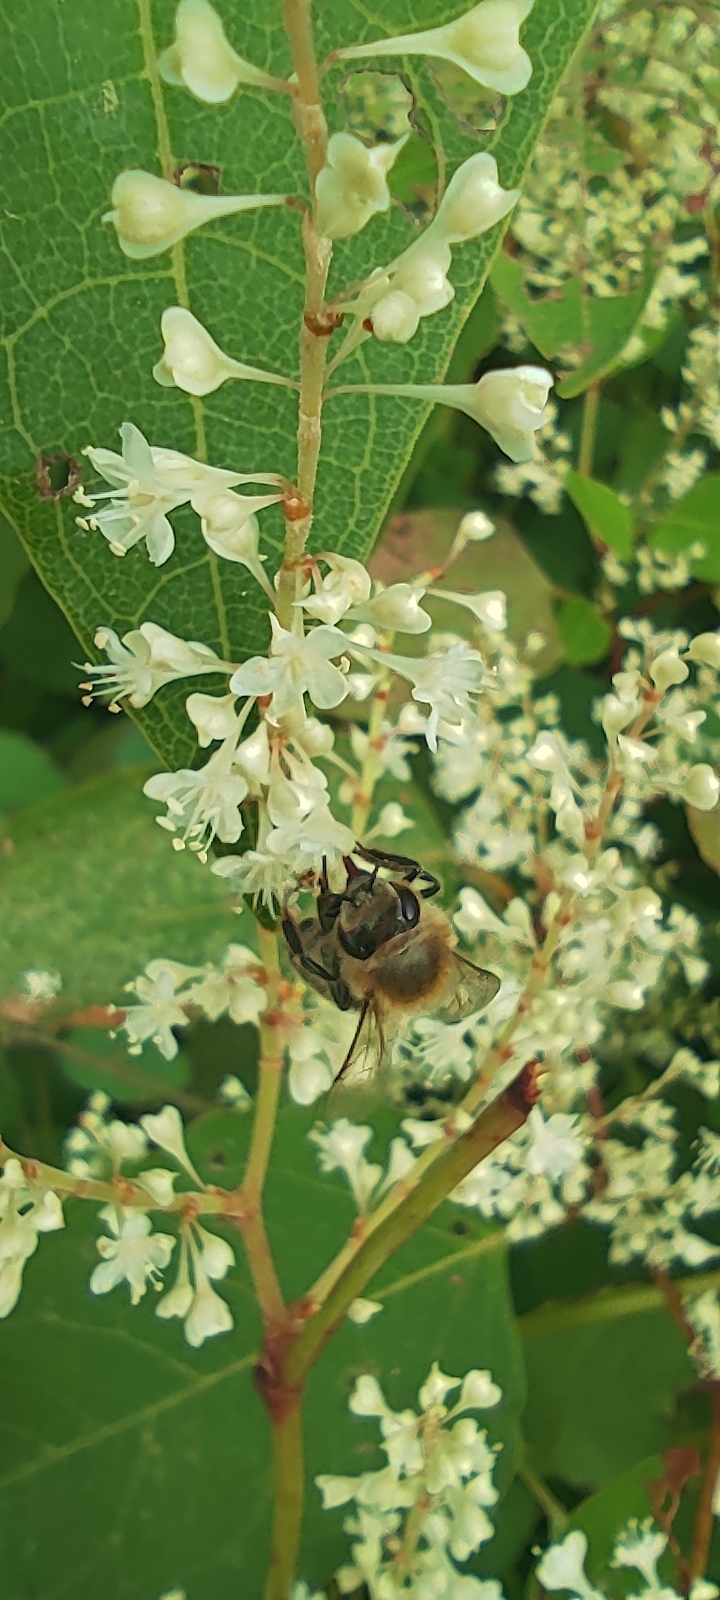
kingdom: Animalia
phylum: Arthropoda
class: Insecta
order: Hymenoptera
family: Apidae
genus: Apis
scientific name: Apis mellifera
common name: Honey bee
